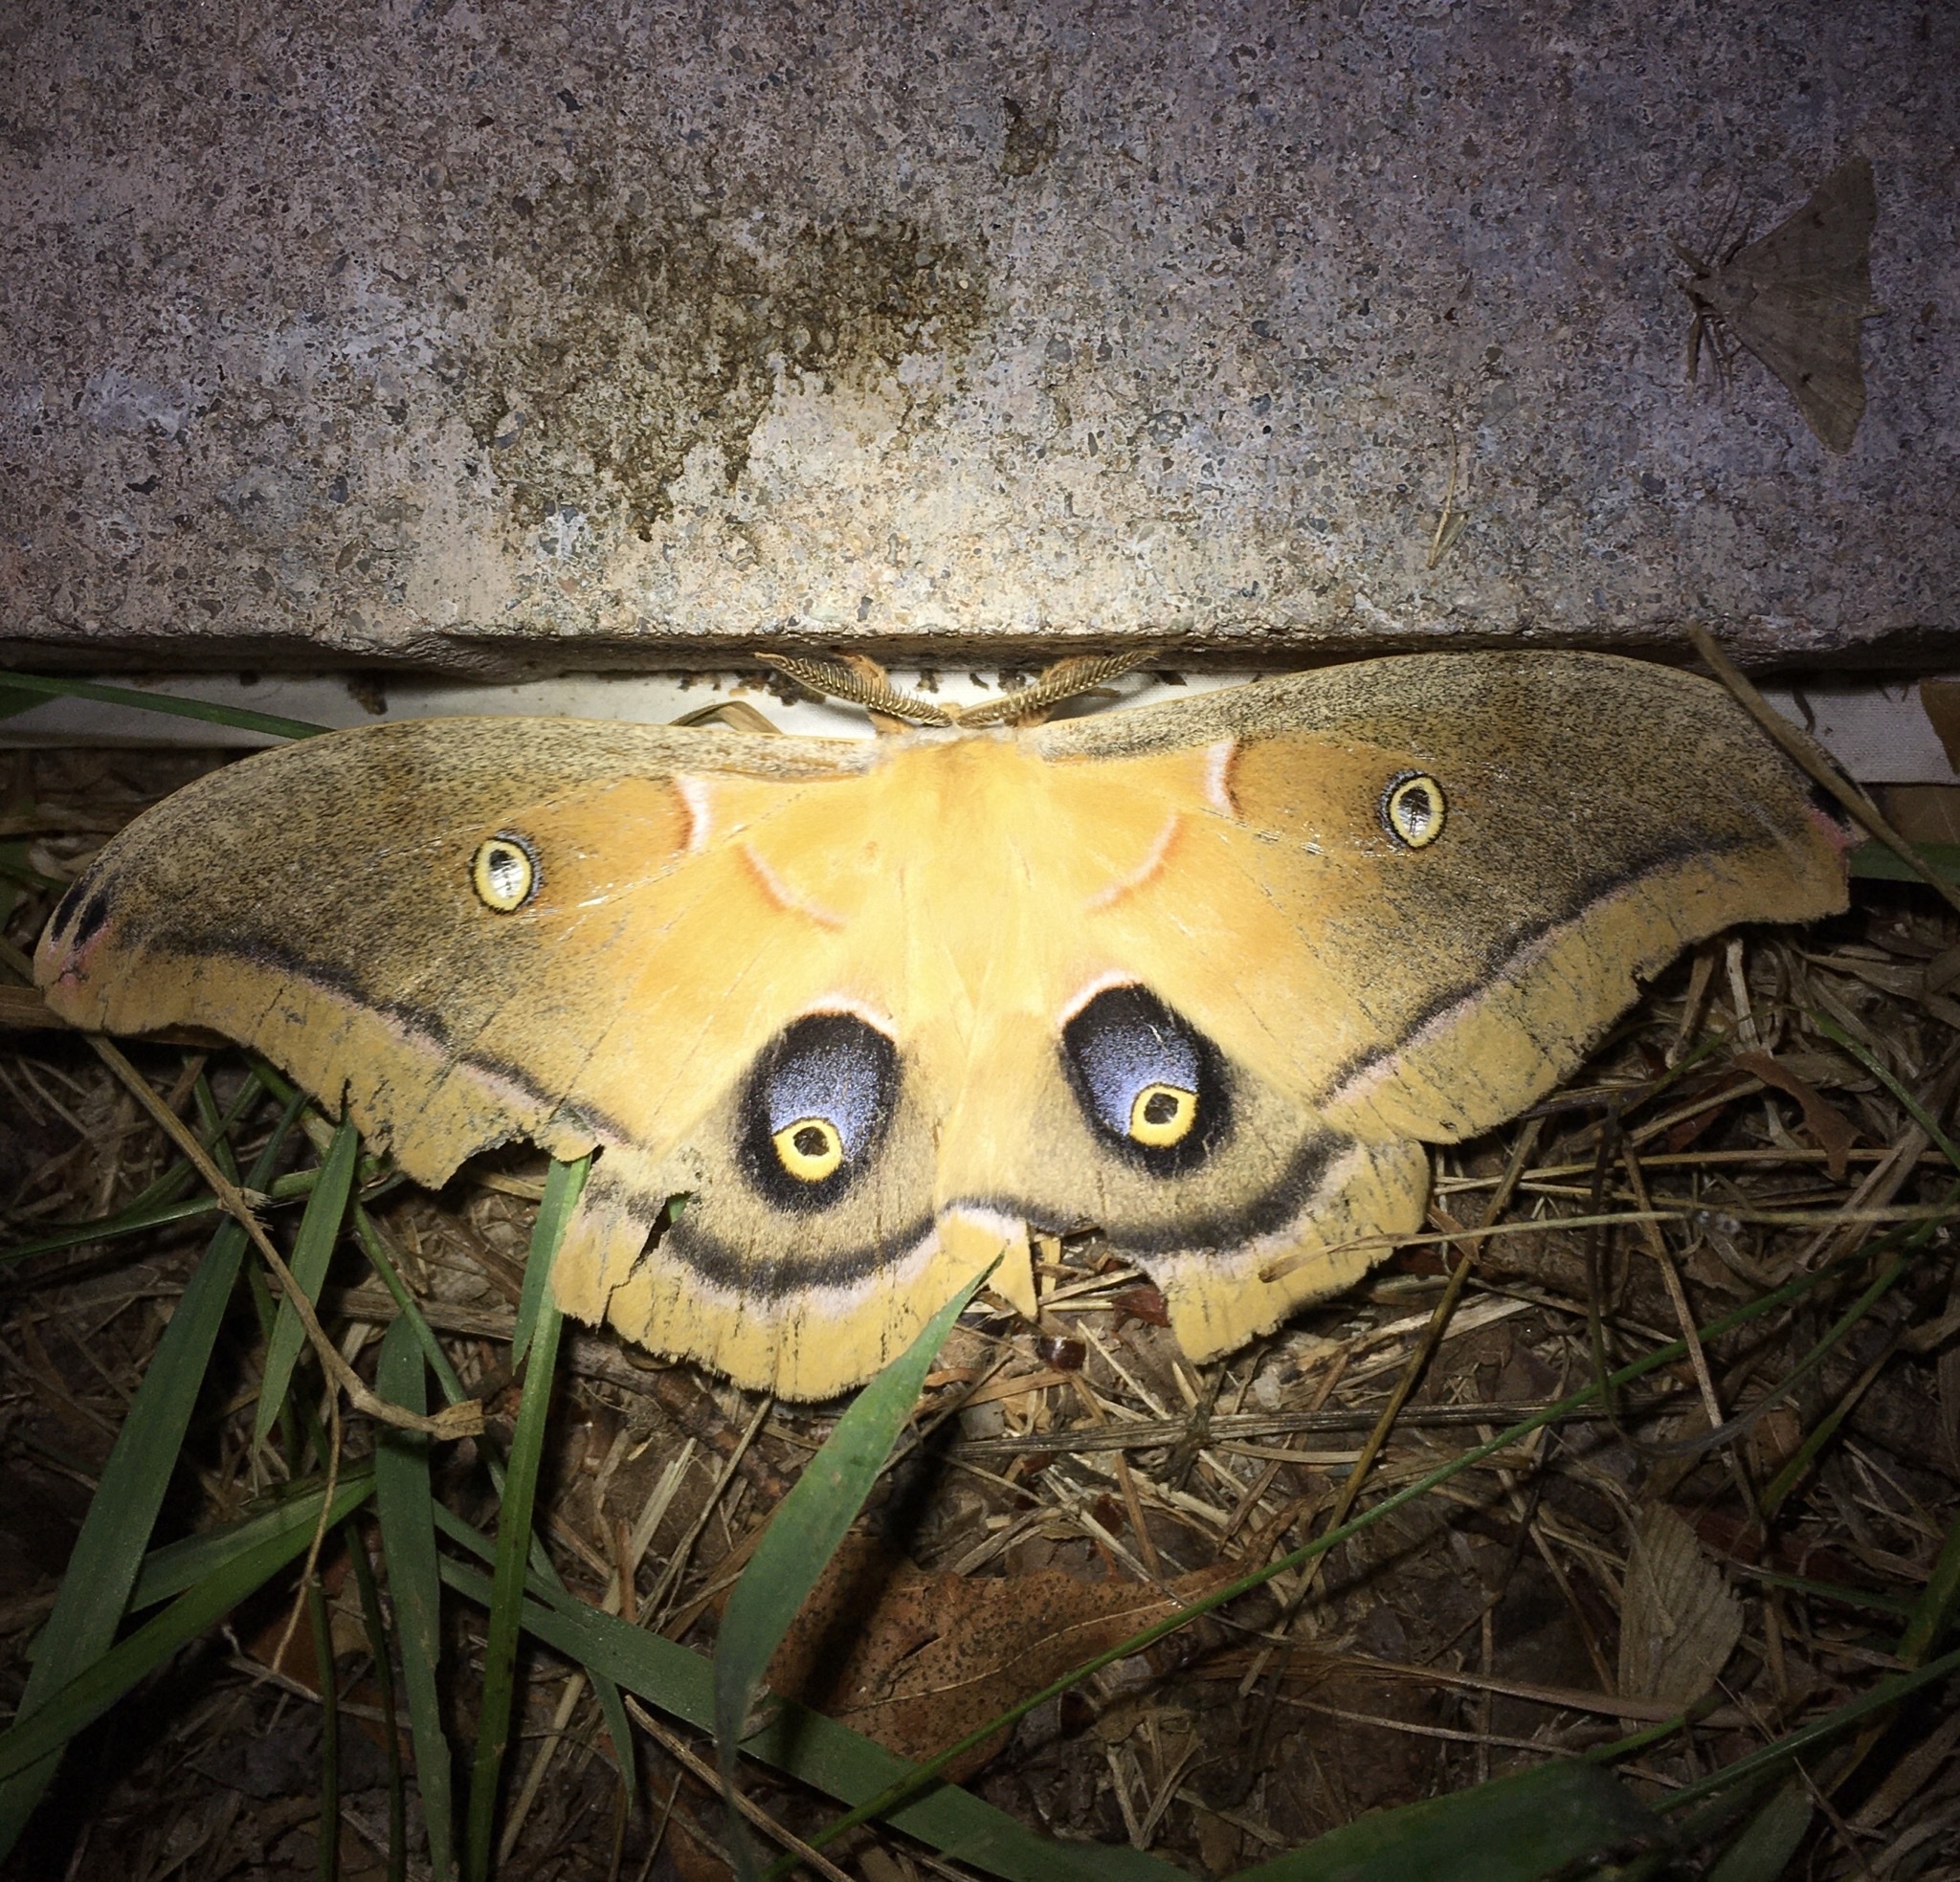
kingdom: Animalia
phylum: Arthropoda
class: Insecta
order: Lepidoptera
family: Saturniidae
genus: Antheraea
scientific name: Antheraea polyphemus
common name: Polyphemus moth
